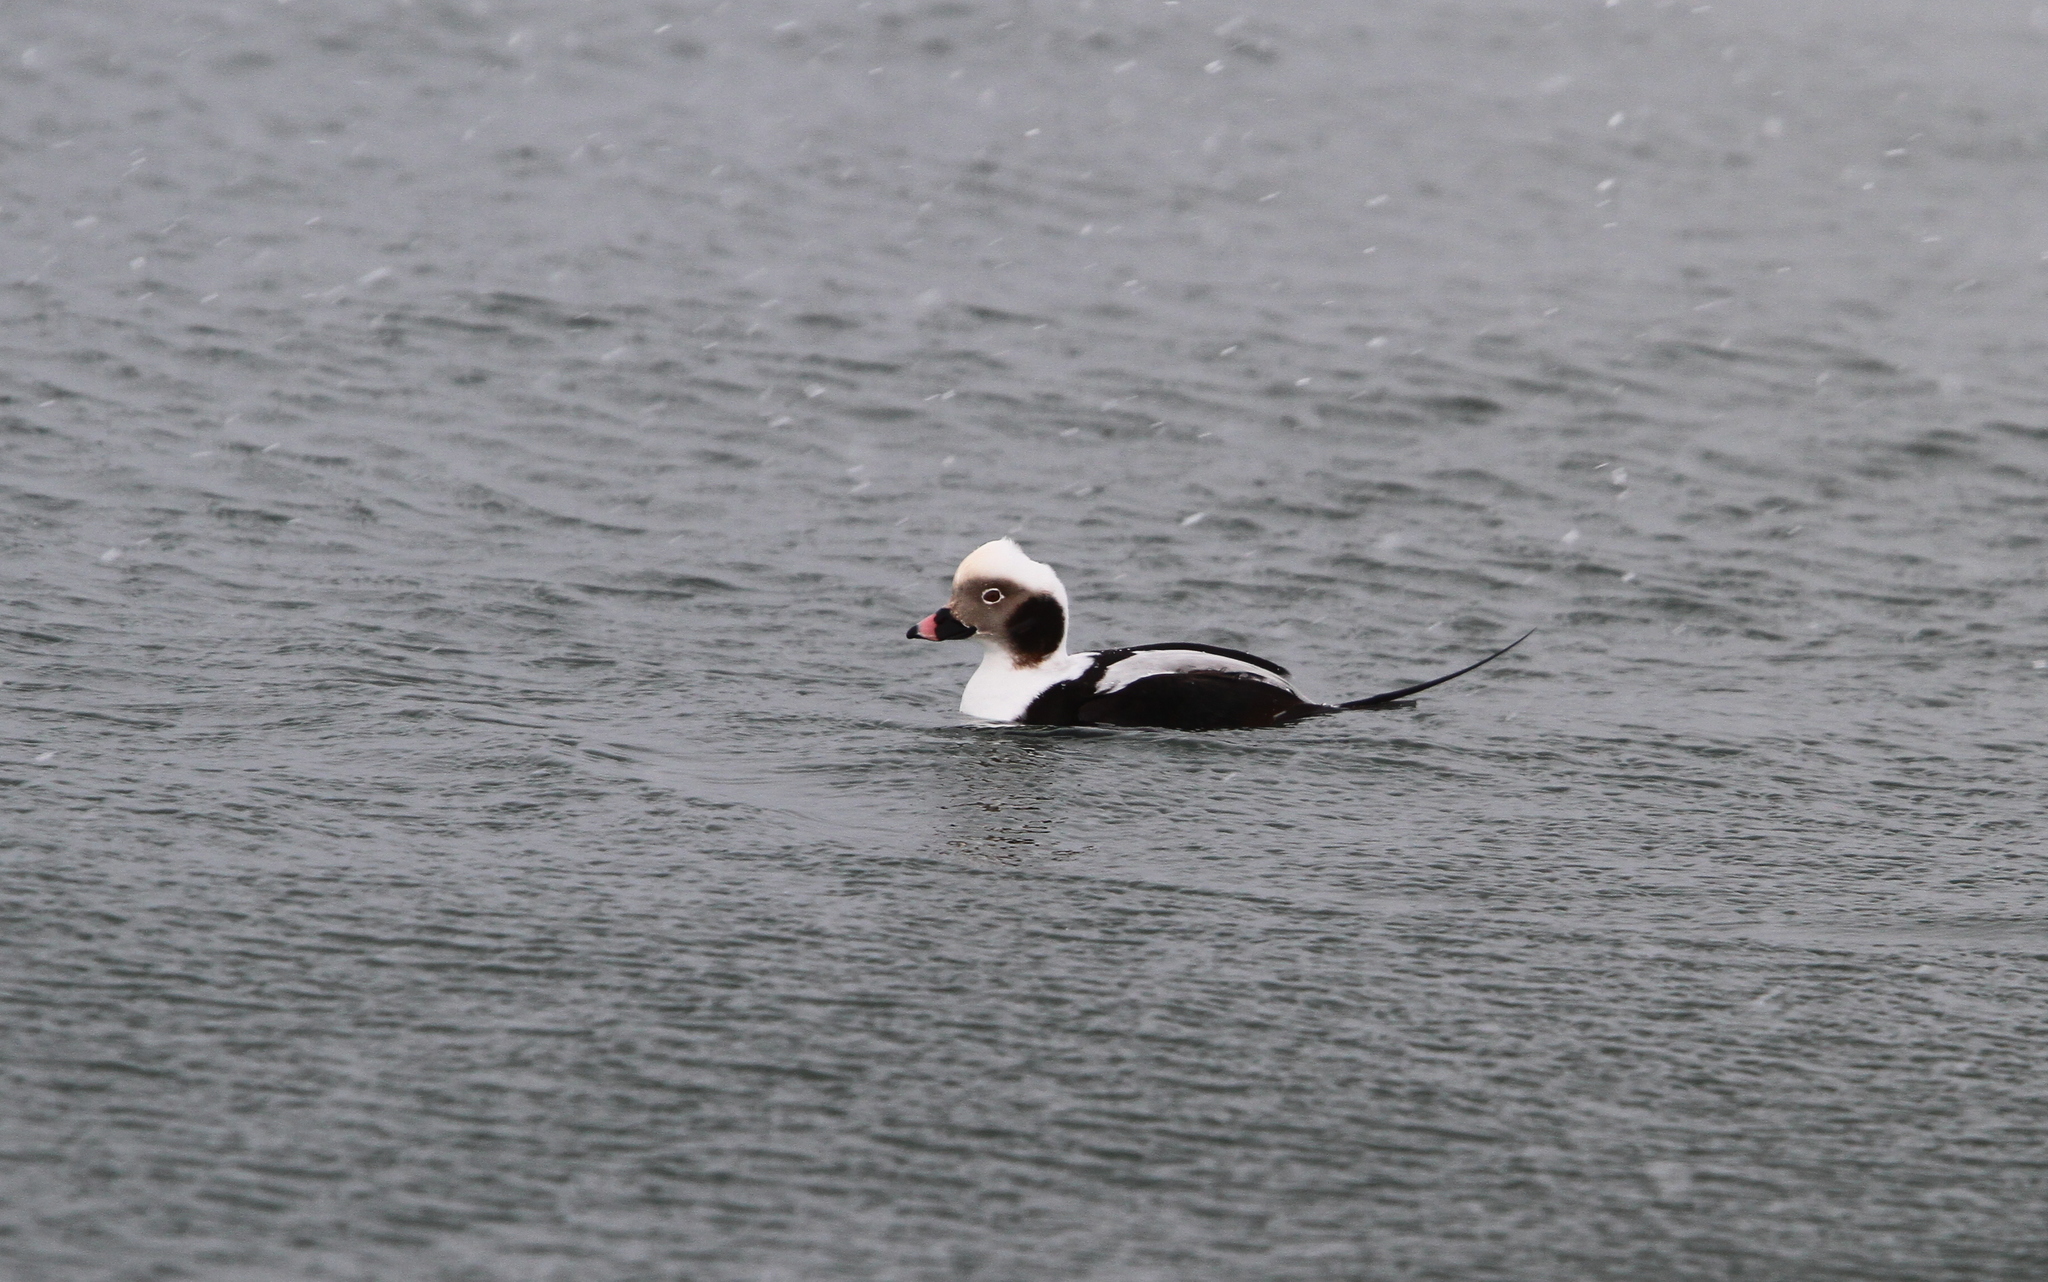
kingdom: Animalia
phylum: Chordata
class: Aves
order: Anseriformes
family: Anatidae
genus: Clangula
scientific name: Clangula hyemalis
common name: Long-tailed duck
